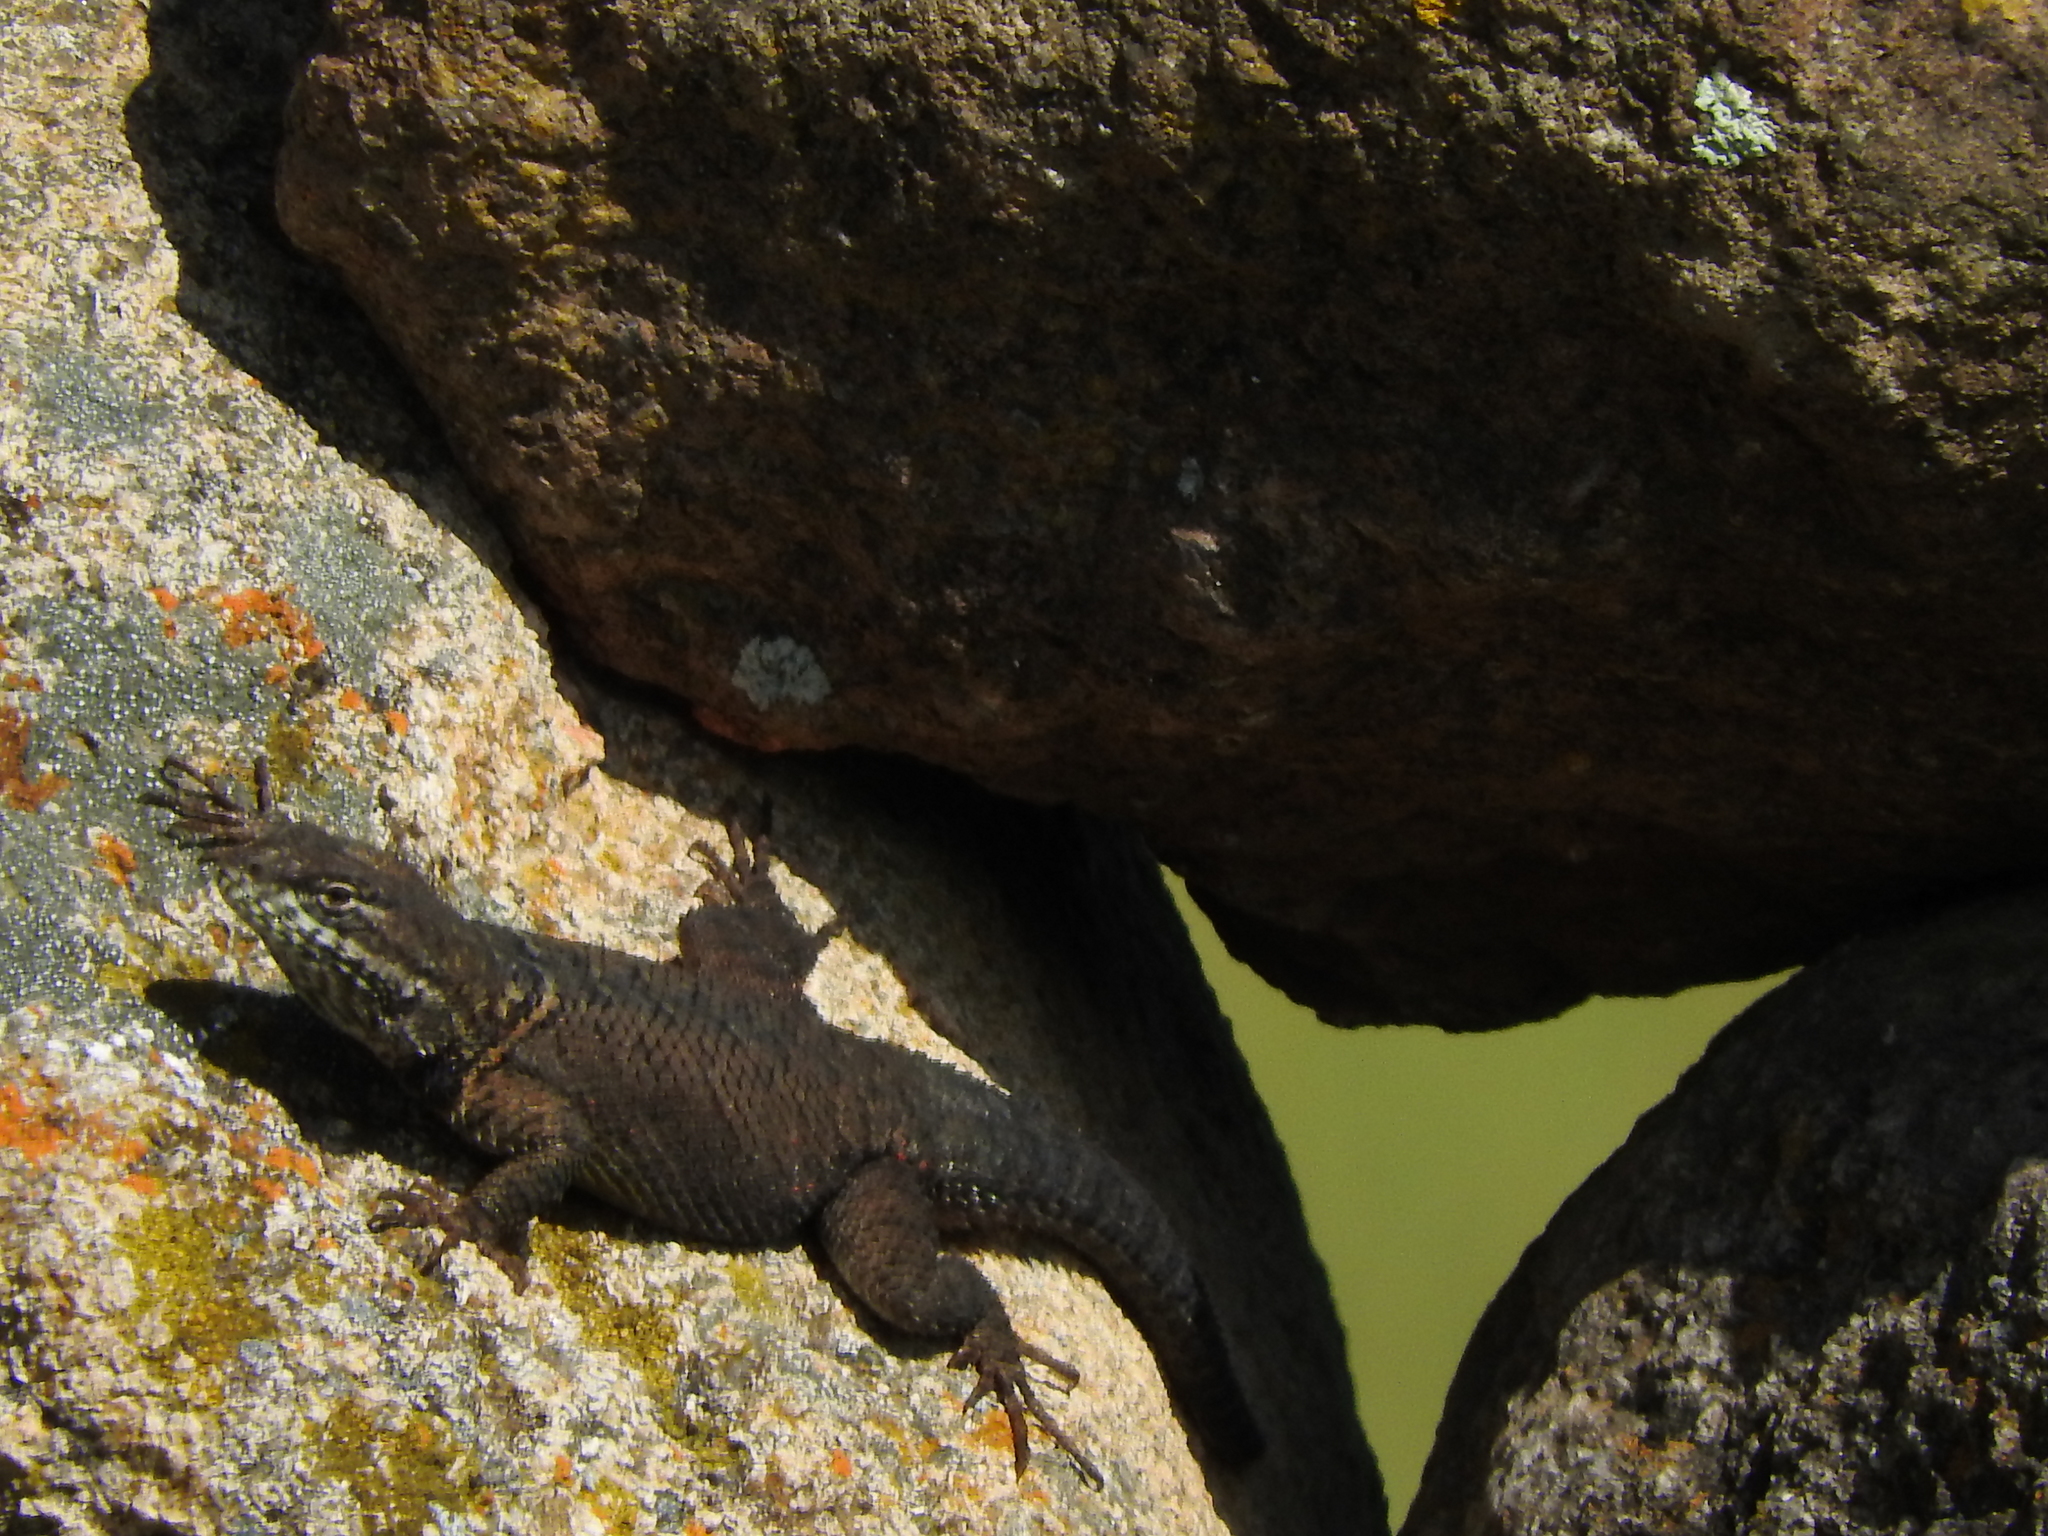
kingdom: Animalia
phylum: Chordata
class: Squamata
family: Phrynosomatidae
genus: Sceloporus
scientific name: Sceloporus dugesii
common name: Duges' spiny lizard
